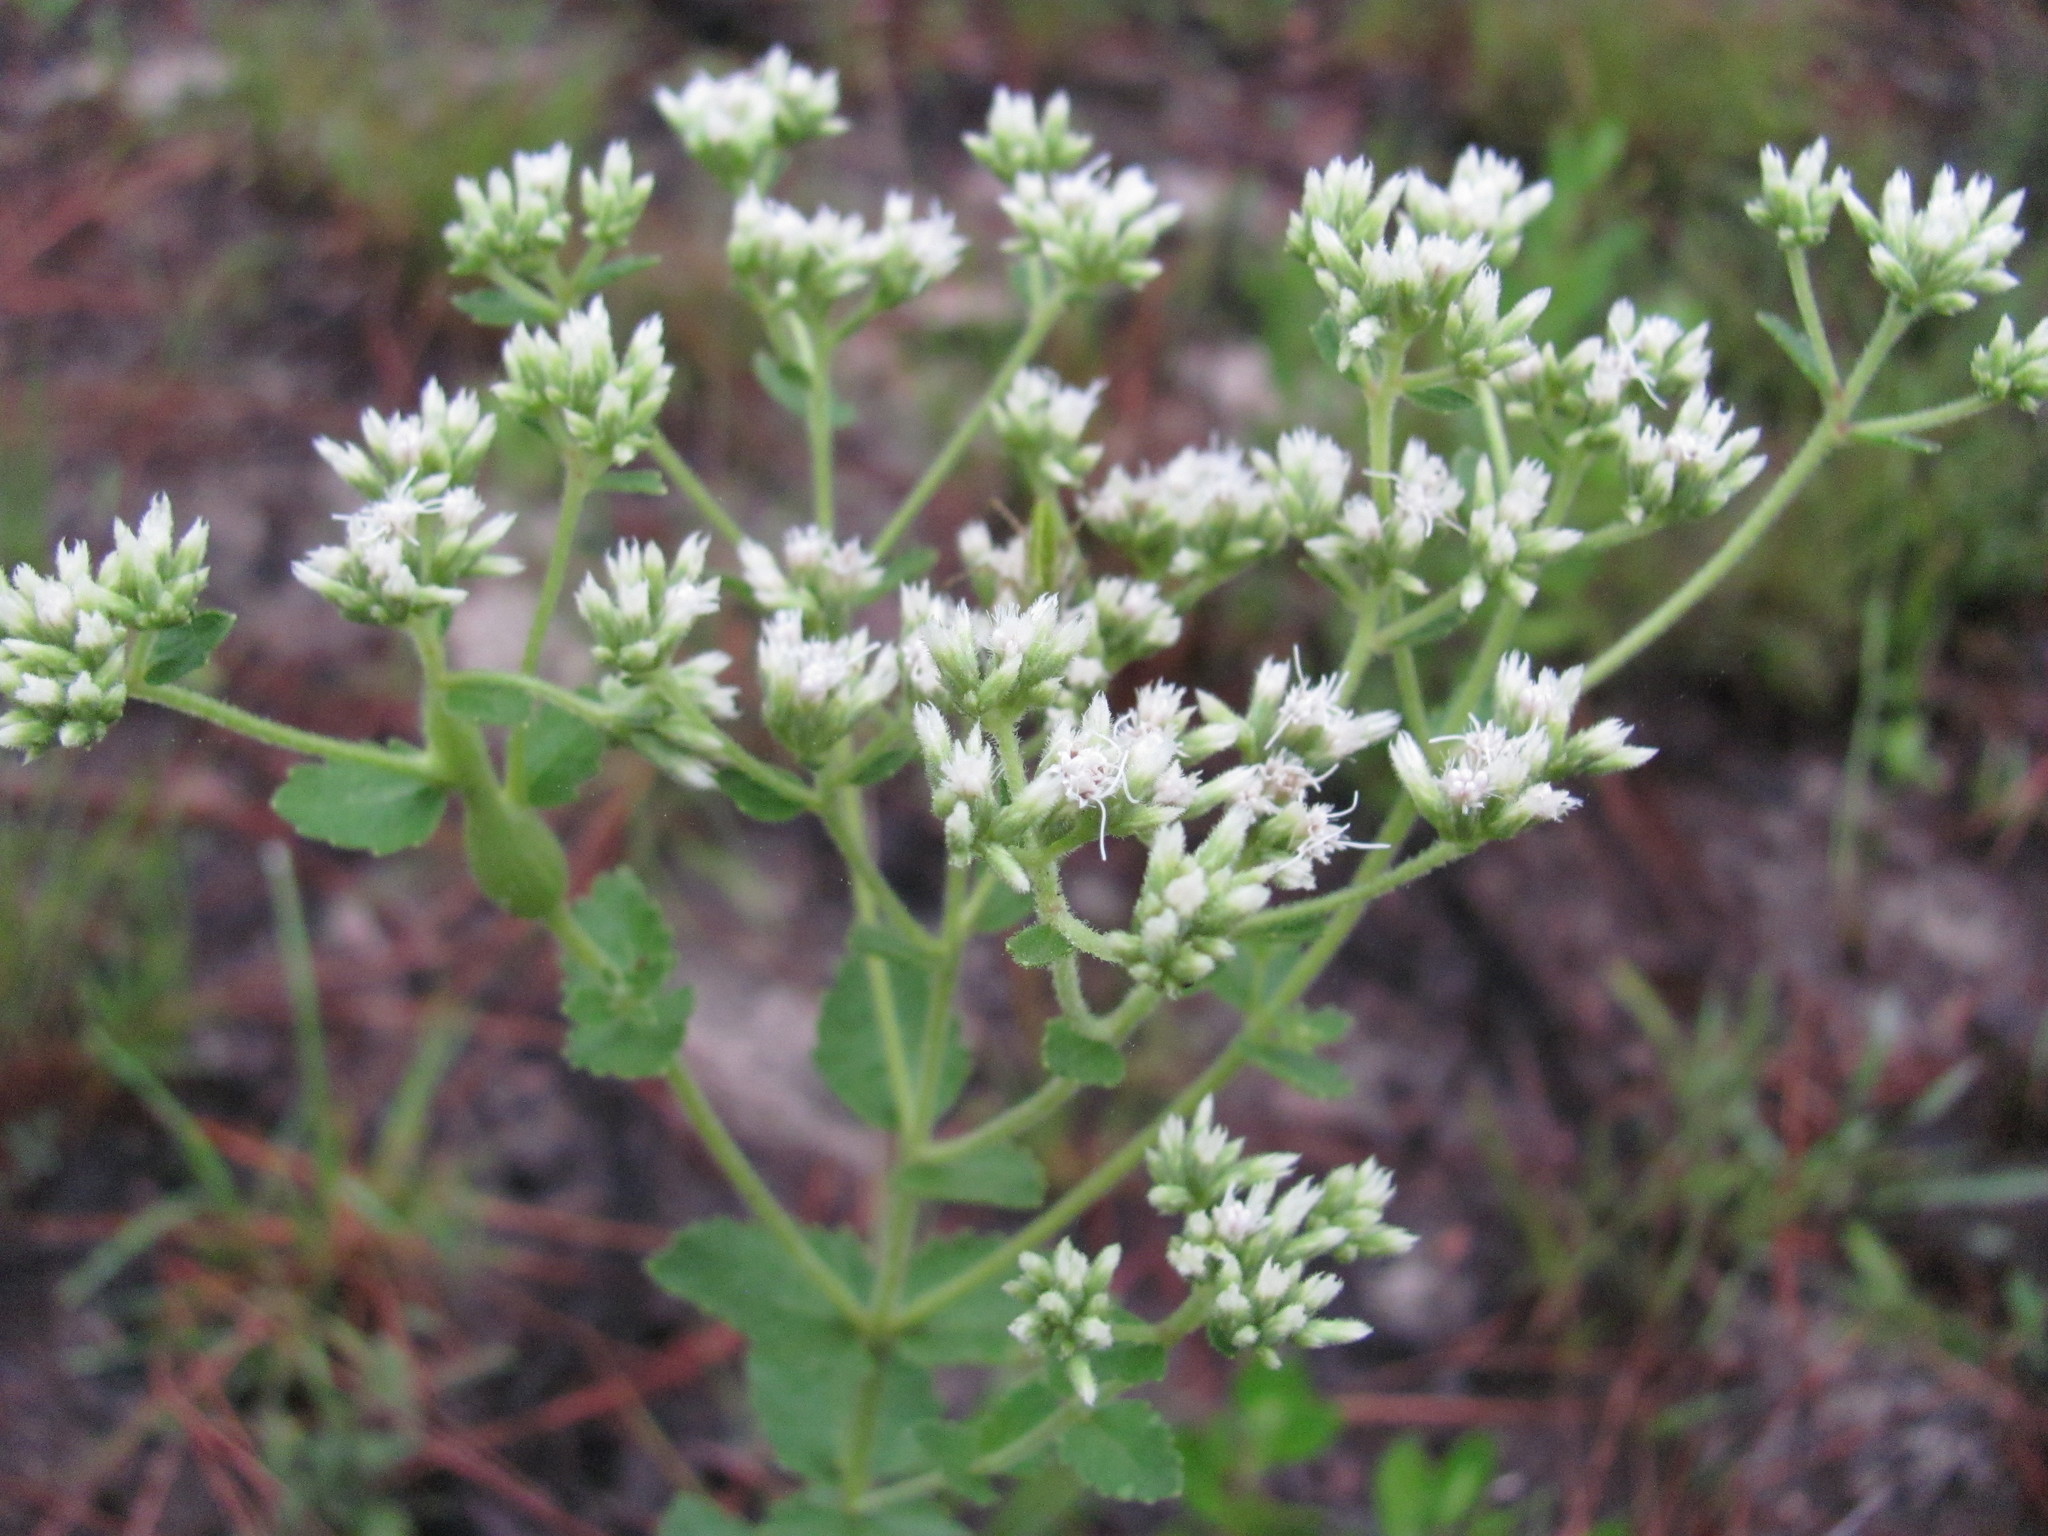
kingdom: Plantae
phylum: Tracheophyta
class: Magnoliopsida
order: Asterales
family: Asteraceae
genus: Eupatorium
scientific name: Eupatorium rotundifolium
